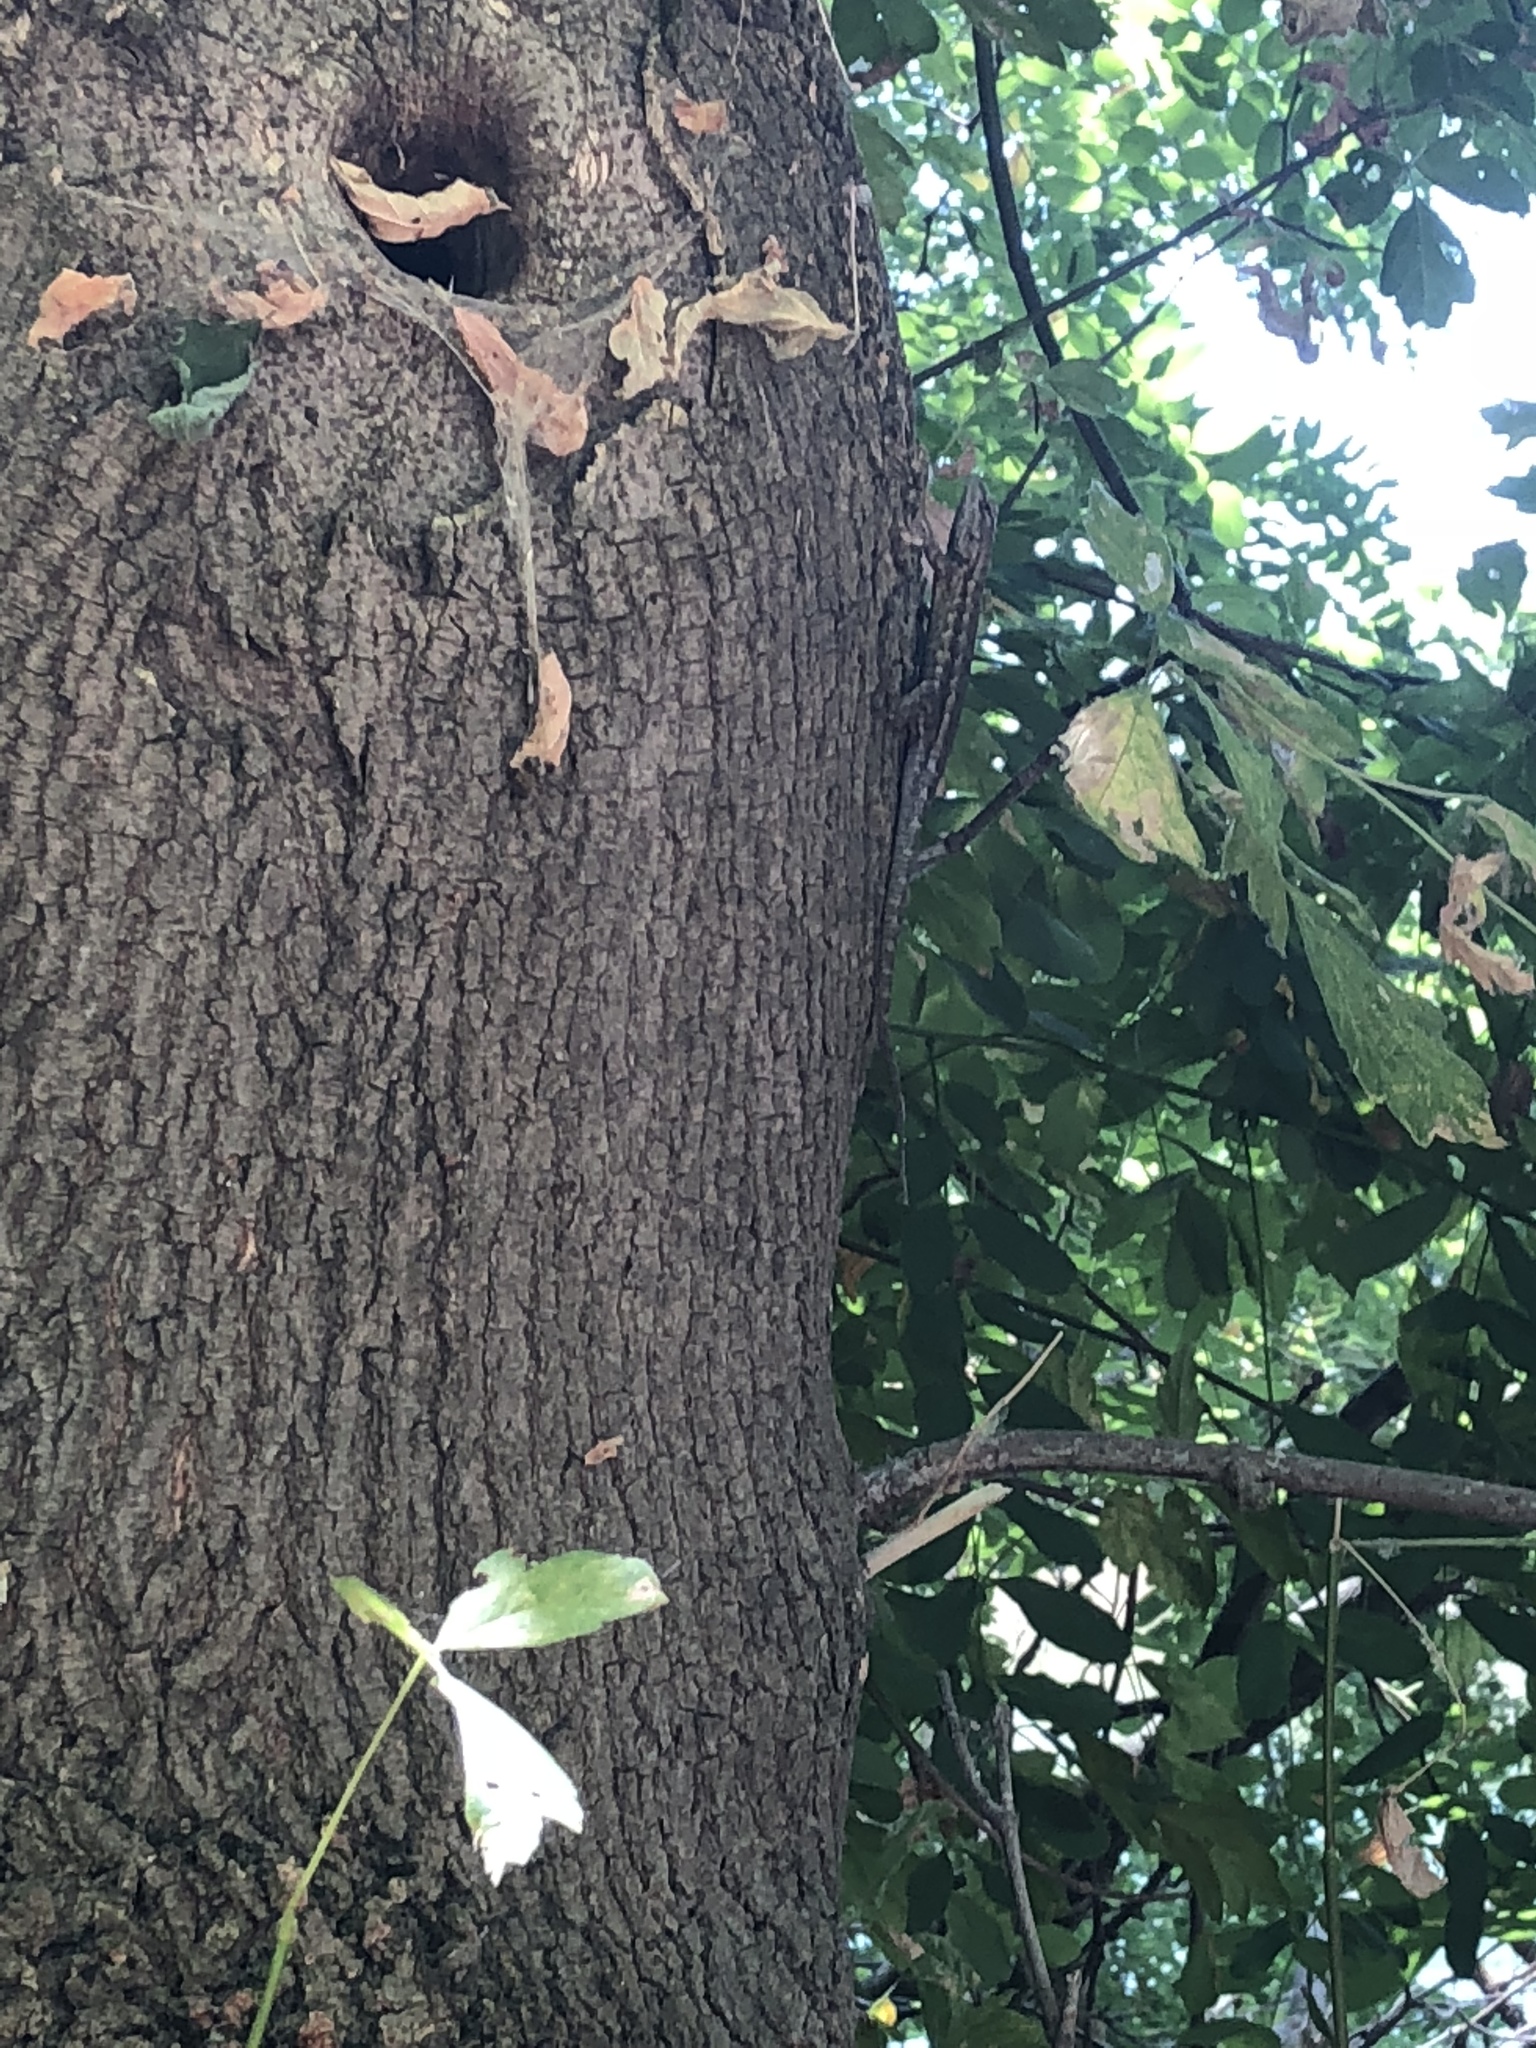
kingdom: Animalia
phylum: Chordata
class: Squamata
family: Phrynosomatidae
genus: Sceloporus
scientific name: Sceloporus occidentalis
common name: Western fence lizard
